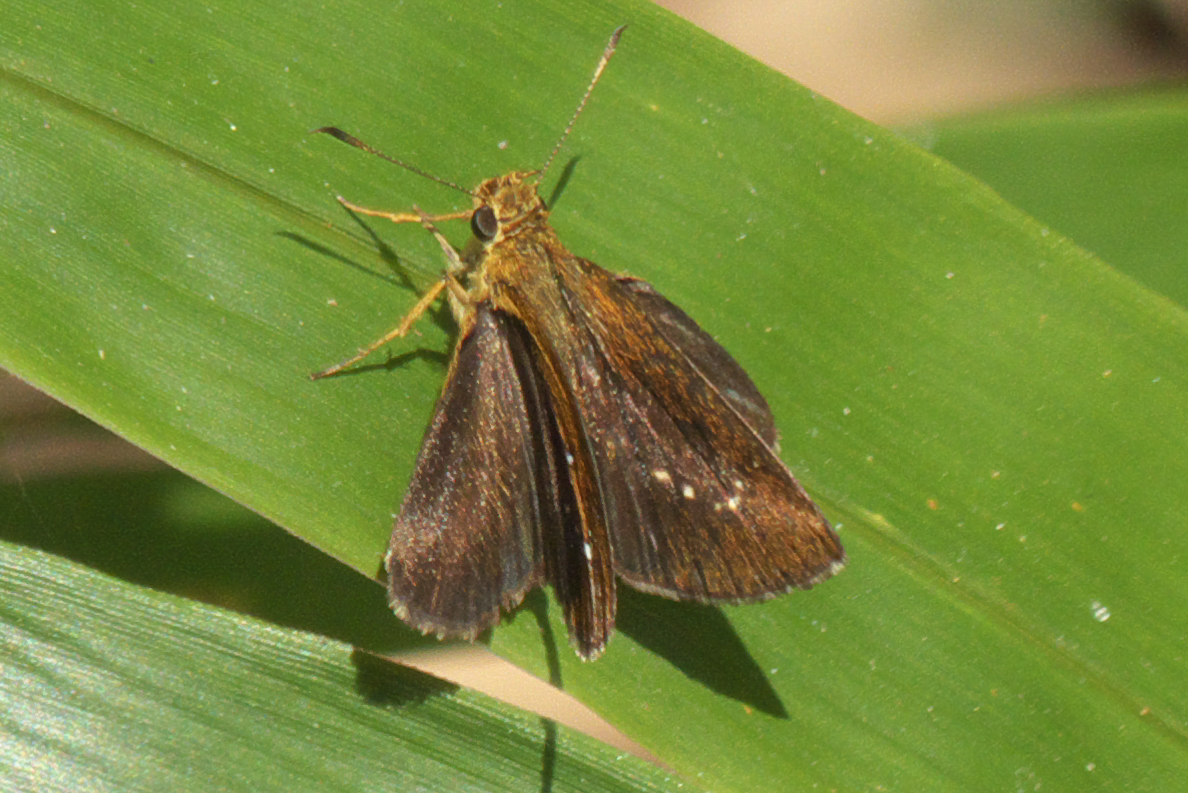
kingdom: Animalia
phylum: Arthropoda
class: Insecta
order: Lepidoptera
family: Hesperiidae
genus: Iambrix
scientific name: Iambrix salsala
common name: Chestnut bob
